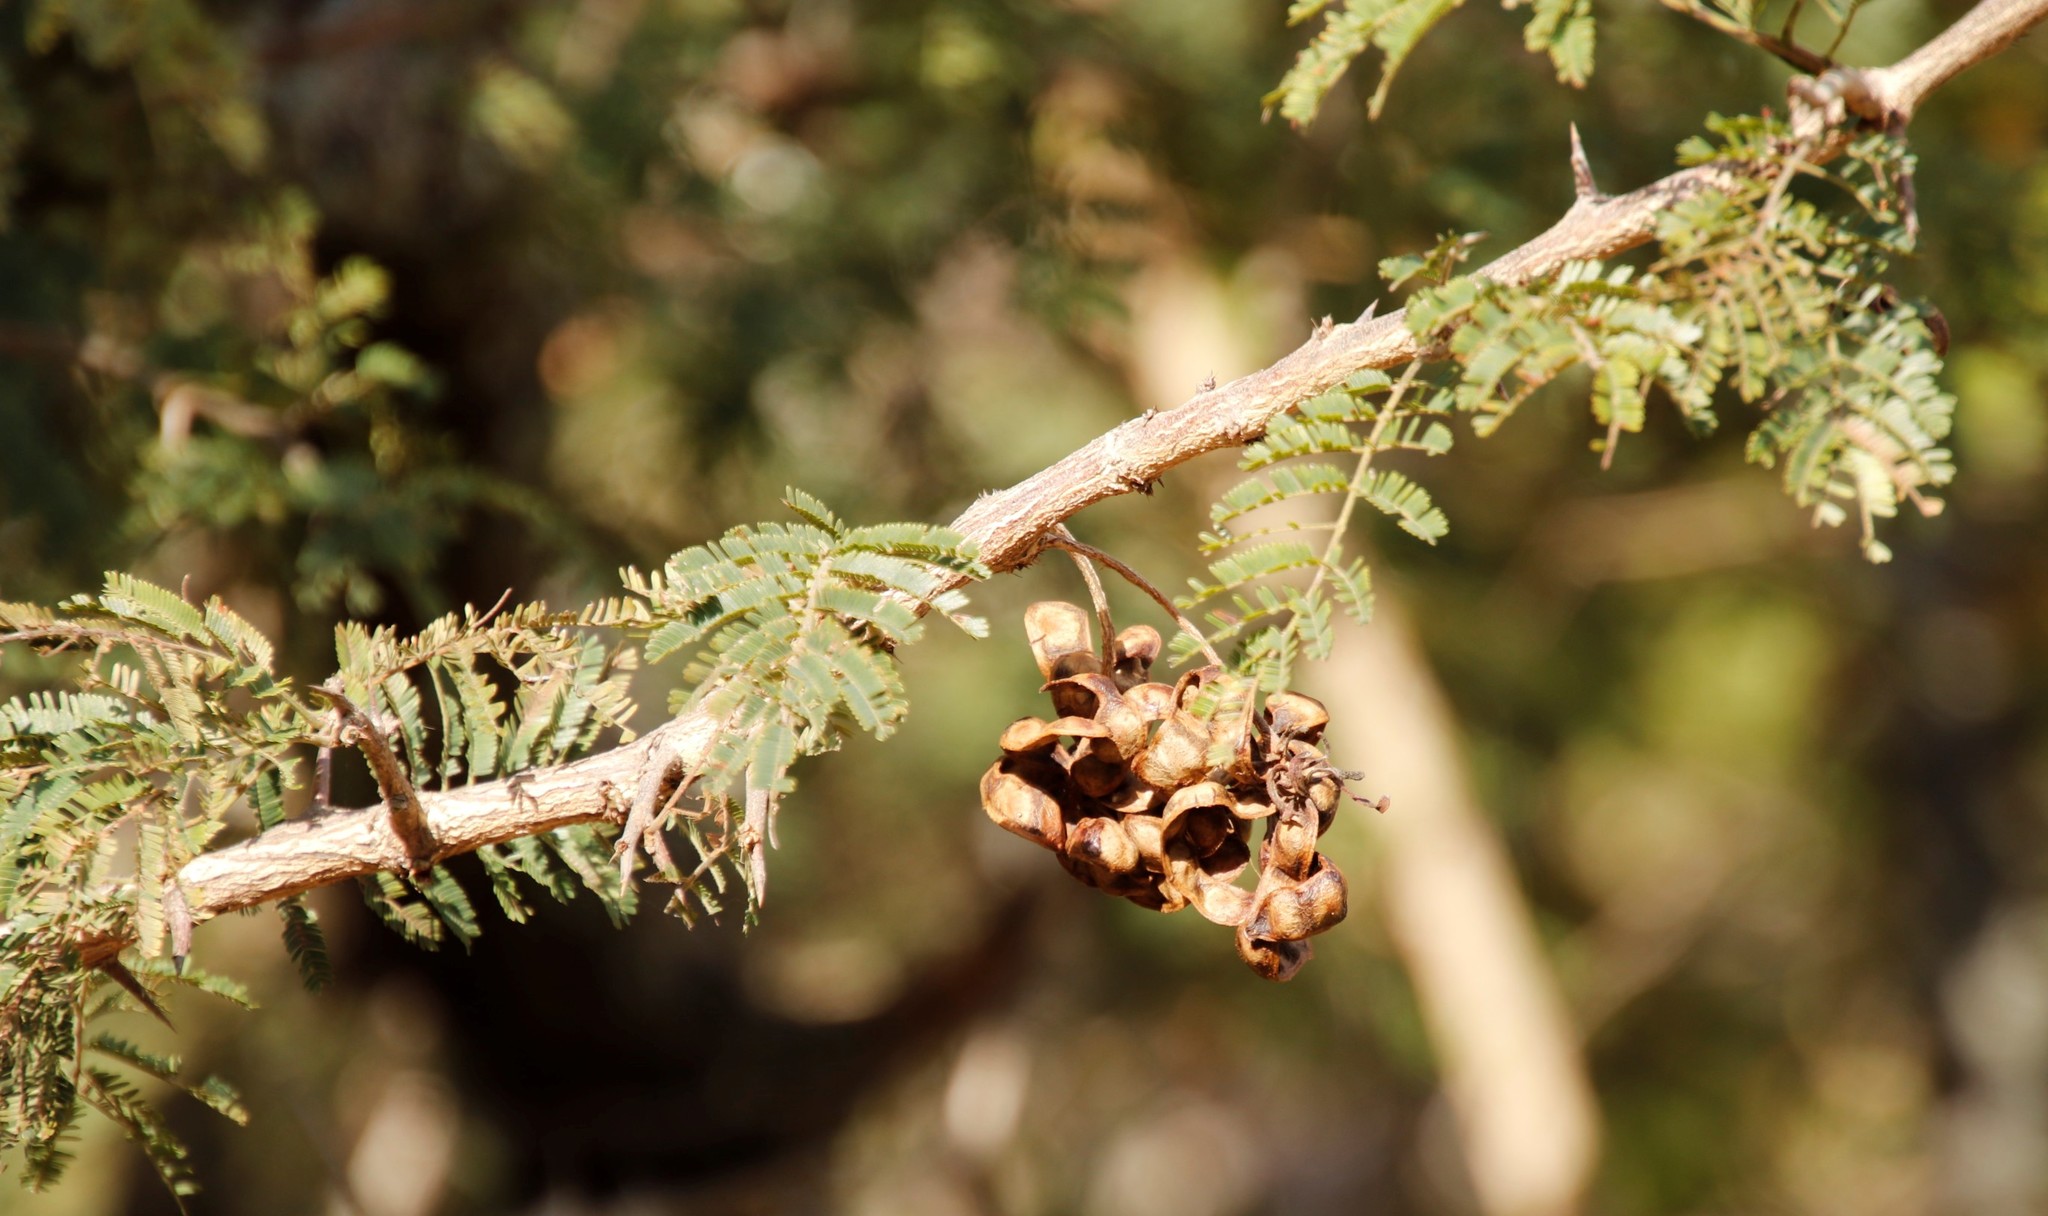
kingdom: Plantae
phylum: Tracheophyta
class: Magnoliopsida
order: Fabales
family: Fabaceae
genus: Dichrostachys
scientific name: Dichrostachys cinerea
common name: Sicklebush
